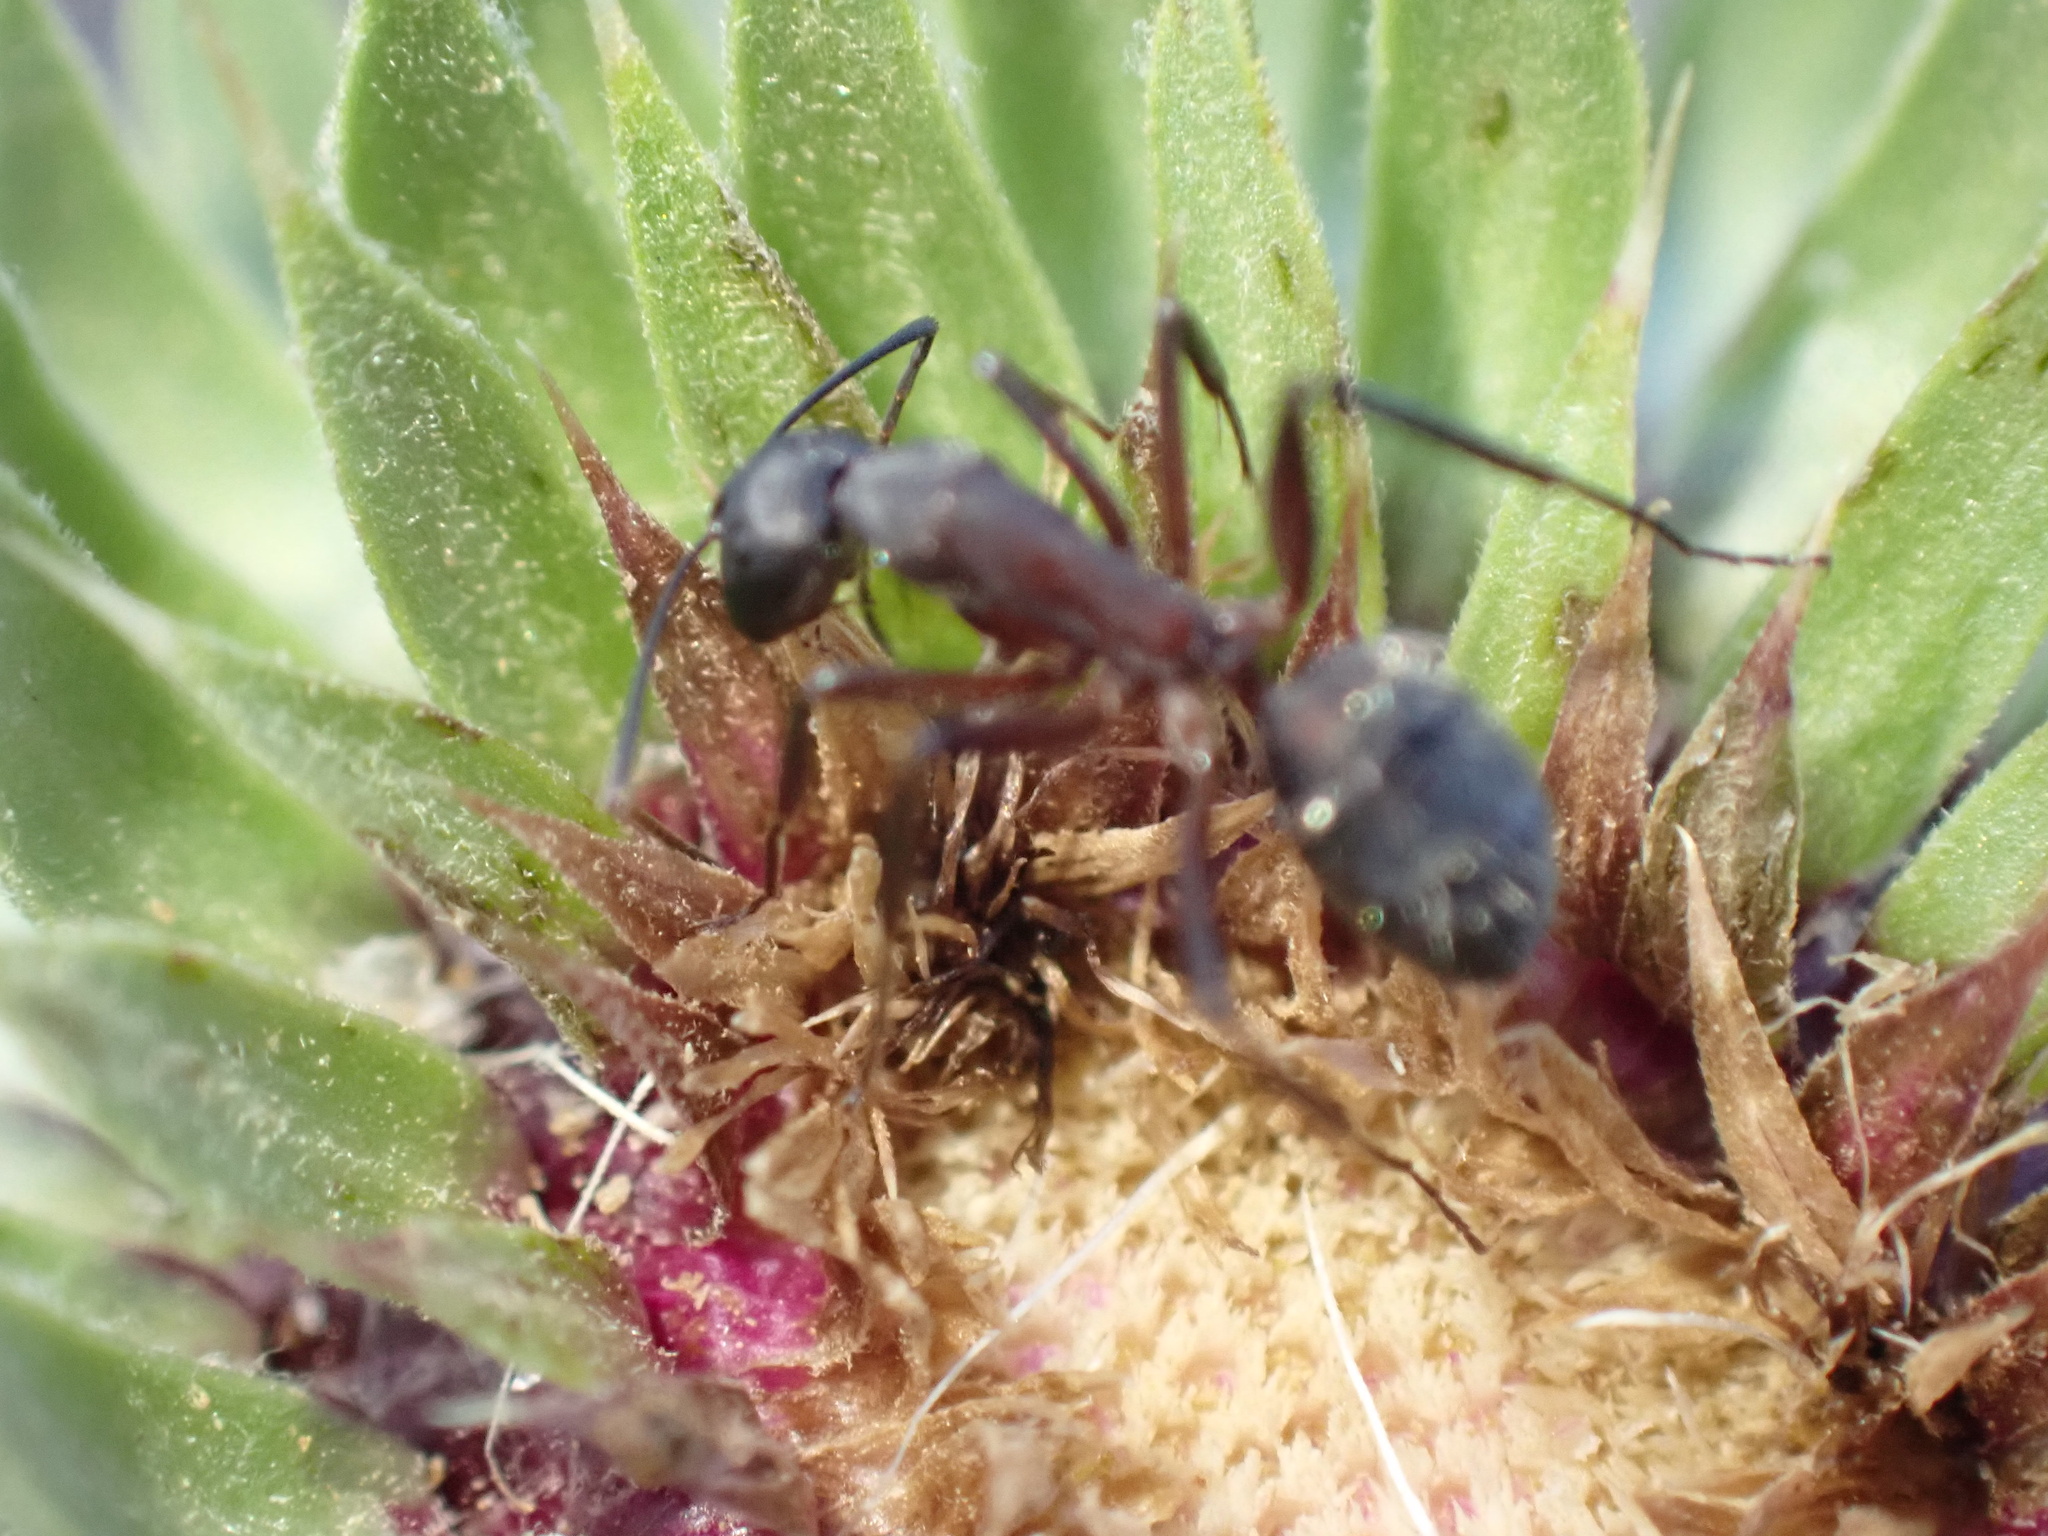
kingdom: Animalia
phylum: Arthropoda
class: Insecta
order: Hymenoptera
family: Formicidae
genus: Camponotus
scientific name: Camponotus obscuriventris
